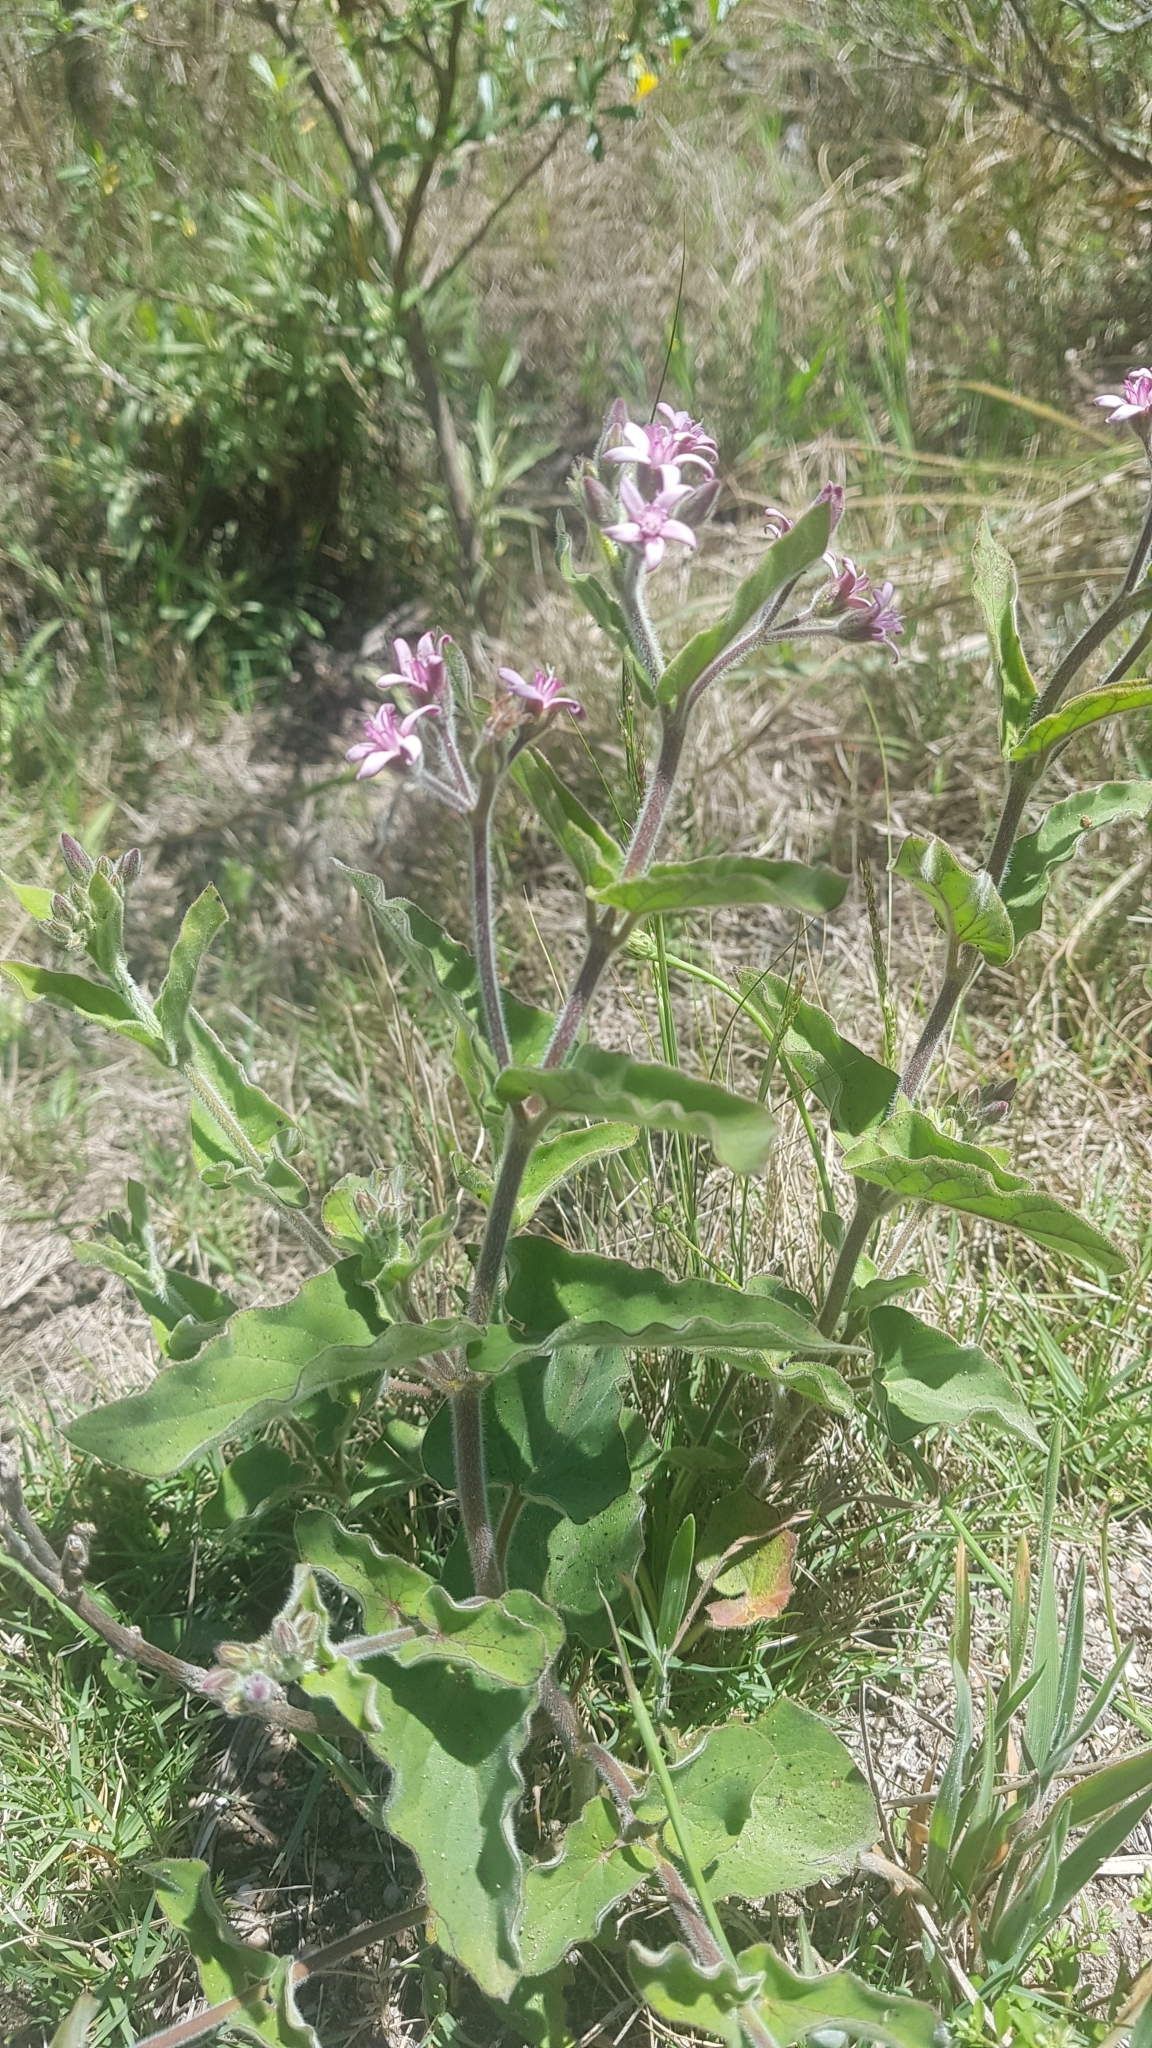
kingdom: Plantae
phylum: Tracheophyta
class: Magnoliopsida
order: Gentianales
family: Apocynaceae
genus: Oxypetalum
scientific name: Oxypetalum solanoides
